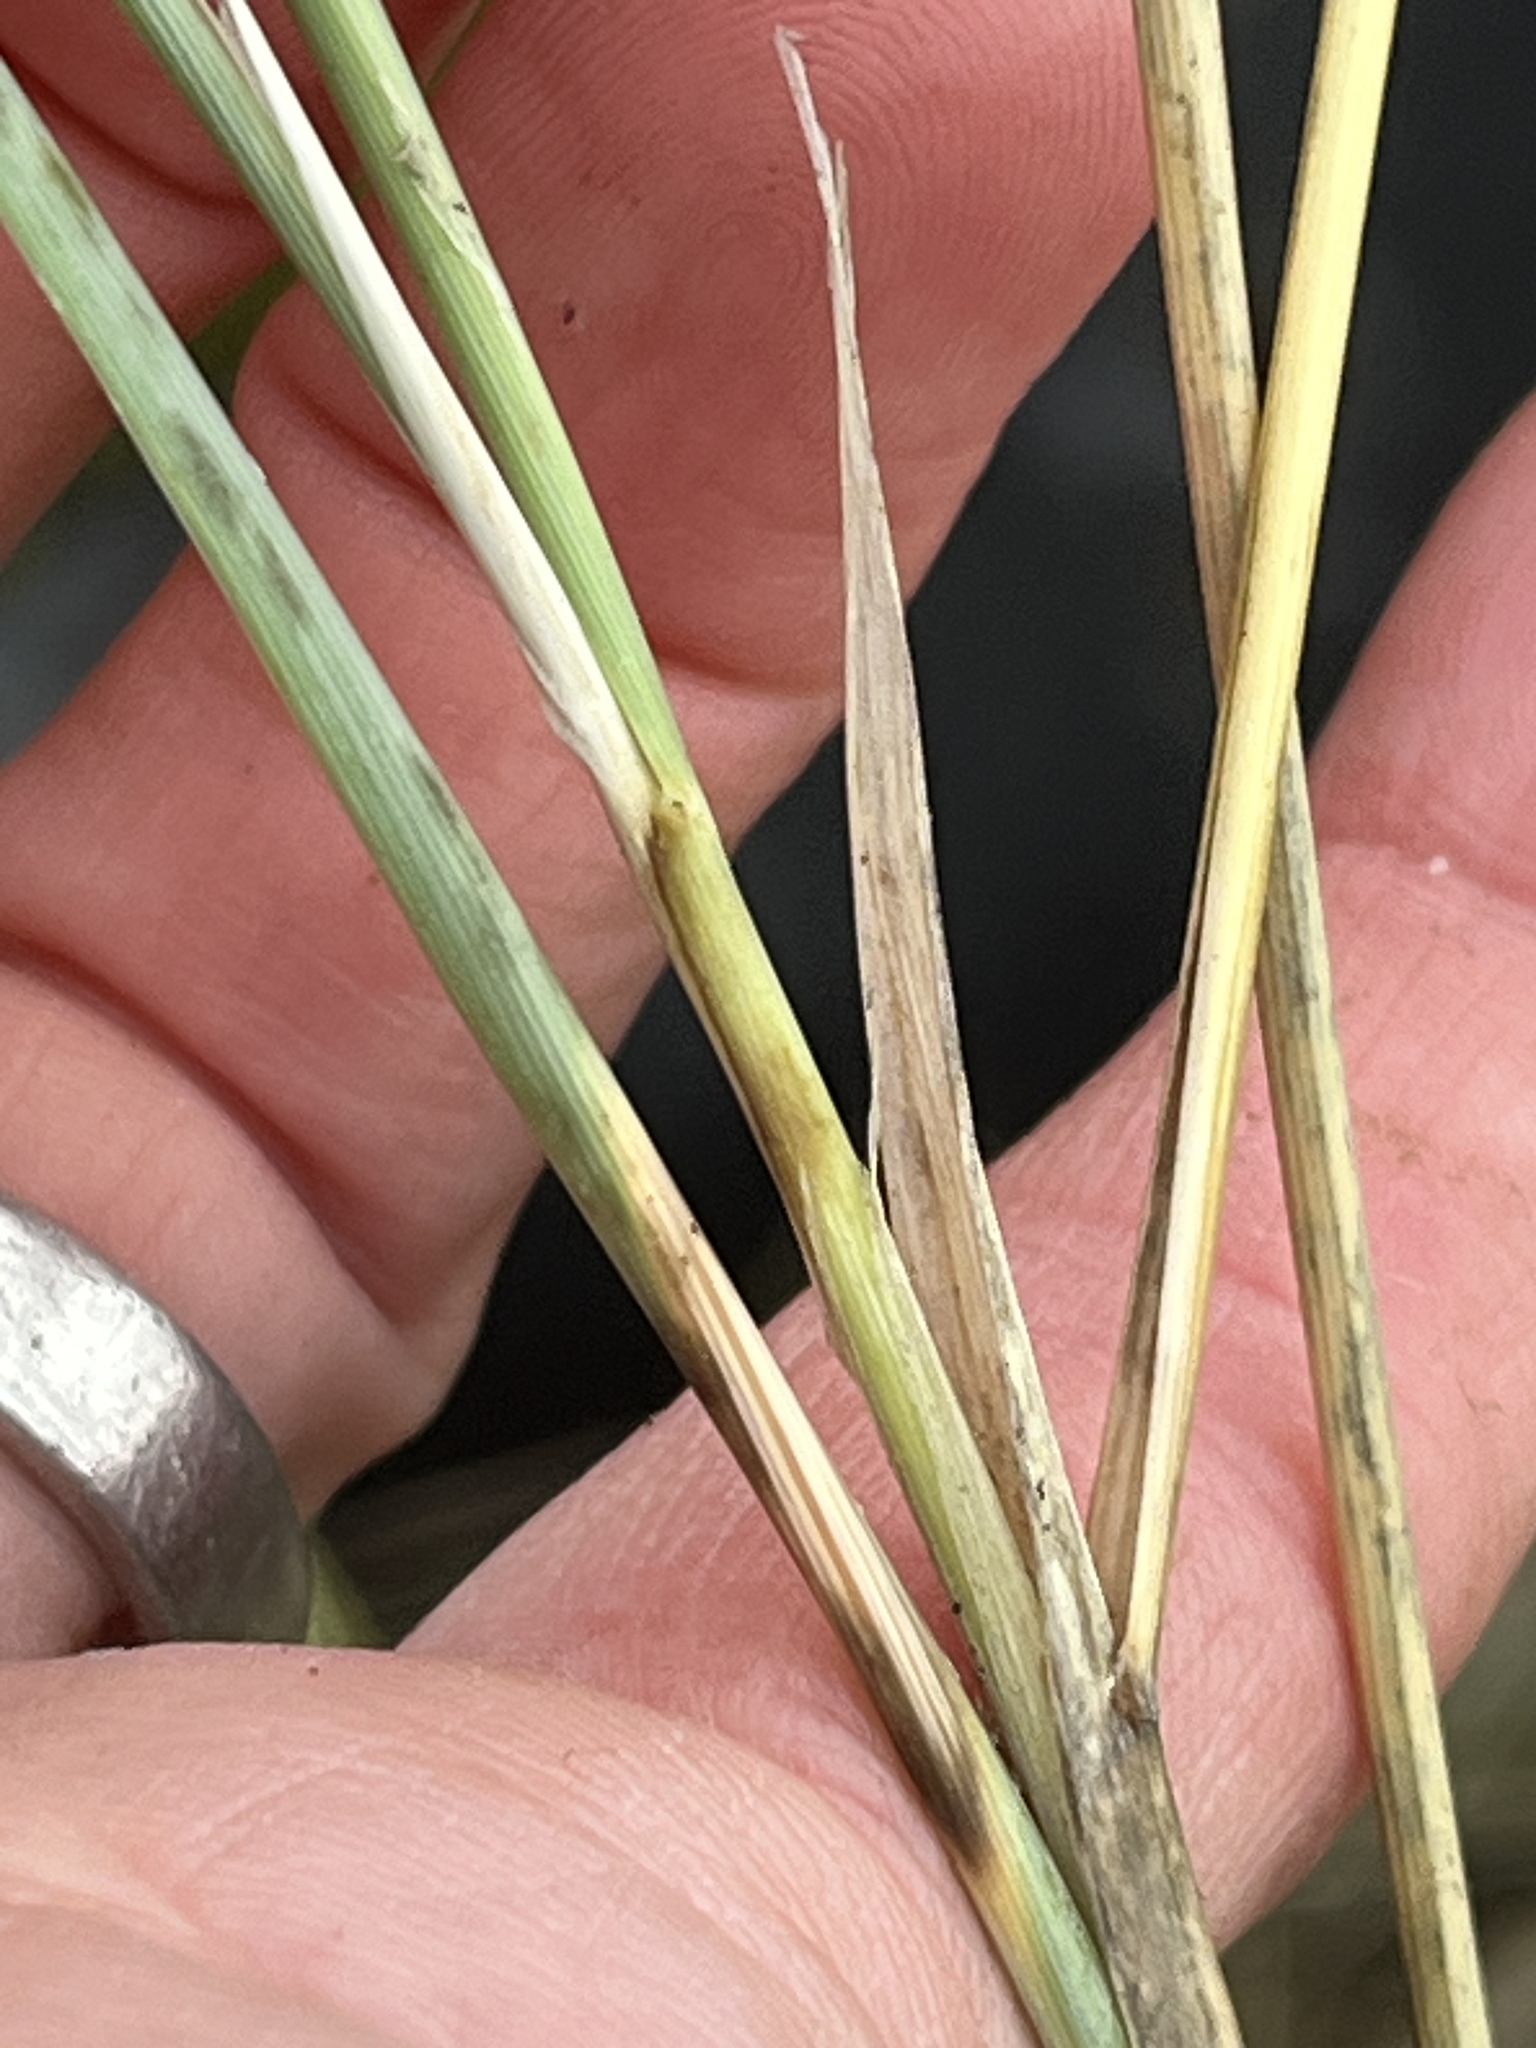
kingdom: Plantae
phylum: Tracheophyta
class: Liliopsida
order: Poales
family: Poaceae
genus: Calamagrostis
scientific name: Calamagrostis arenaria
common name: European beachgrass
